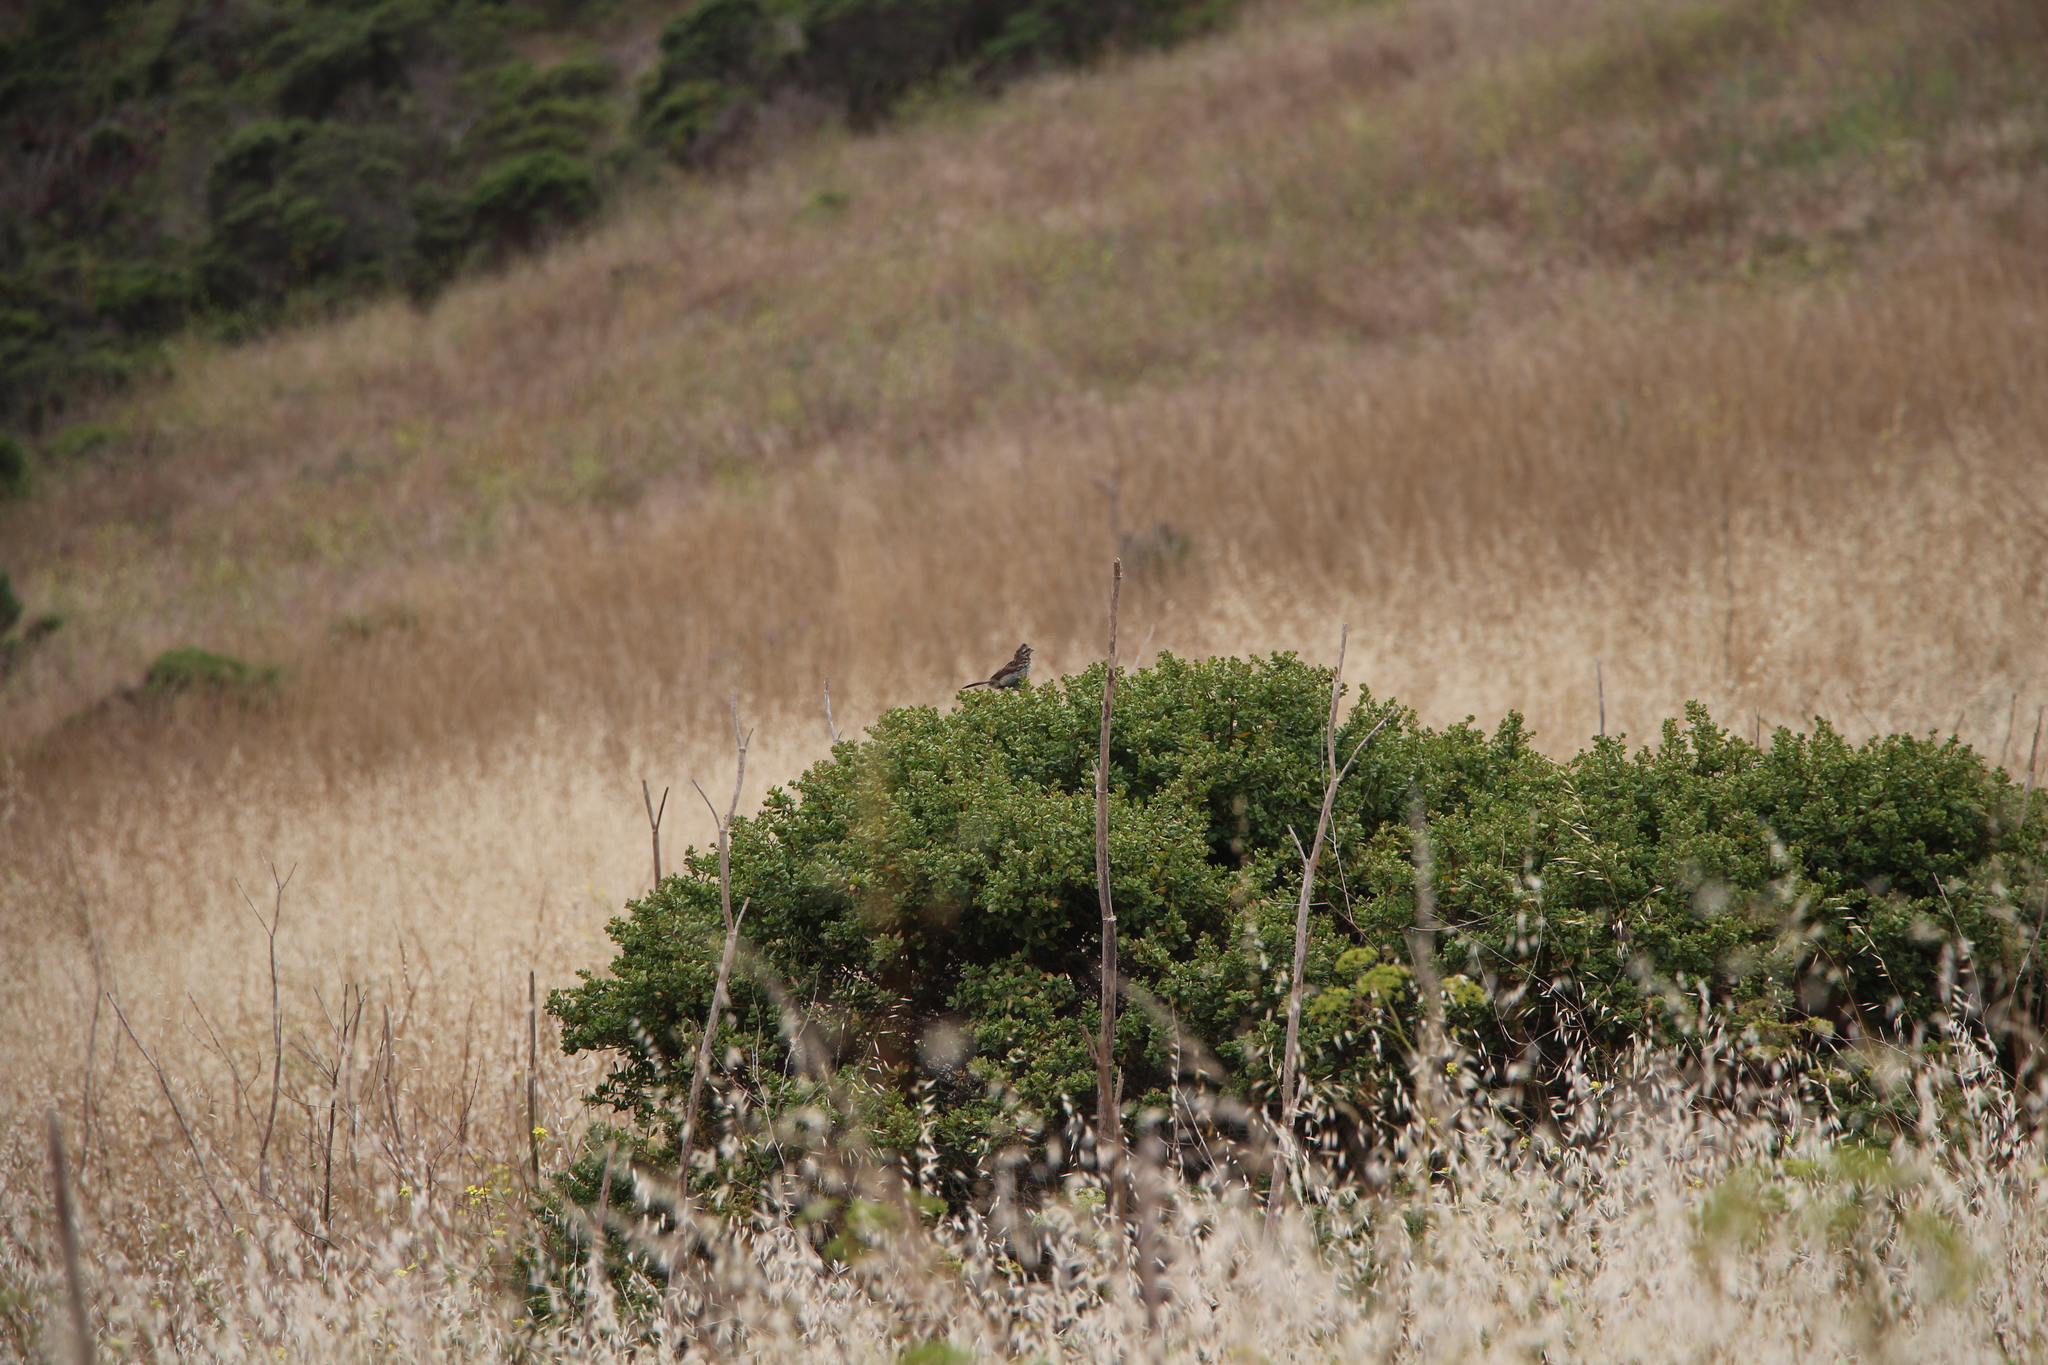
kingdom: Animalia
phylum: Chordata
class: Aves
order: Passeriformes
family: Passerellidae
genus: Melospiza
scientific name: Melospiza melodia
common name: Song sparrow
